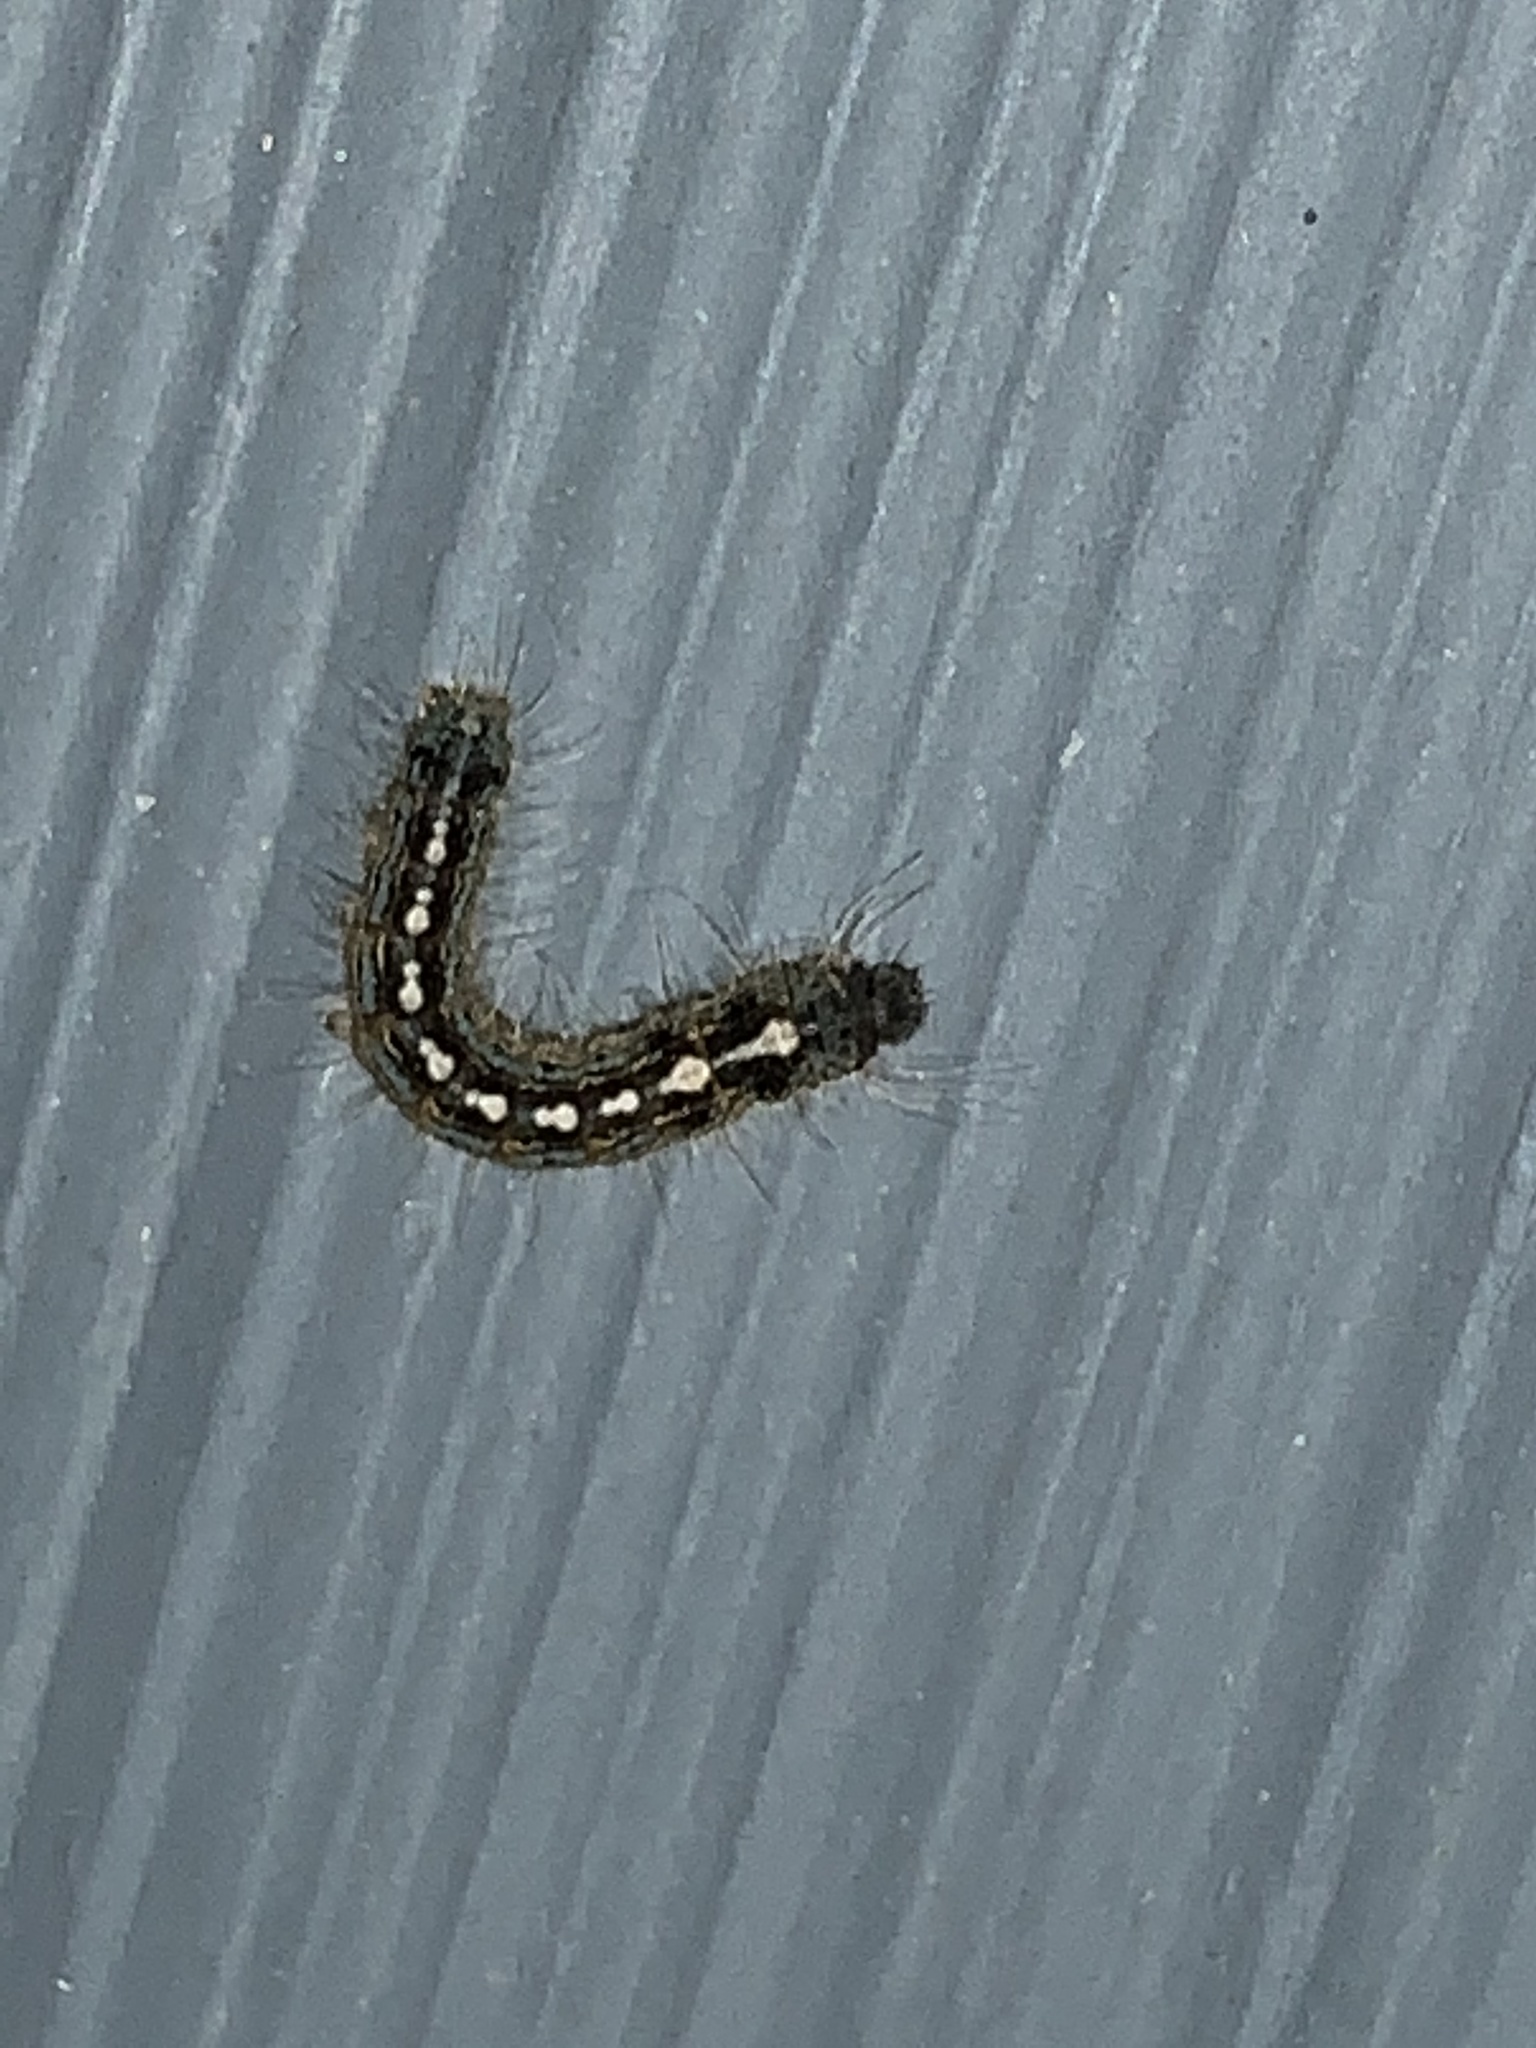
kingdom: Animalia
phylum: Arthropoda
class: Insecta
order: Lepidoptera
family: Lasiocampidae
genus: Malacosoma
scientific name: Malacosoma disstria
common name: Forest tent caterpillar
